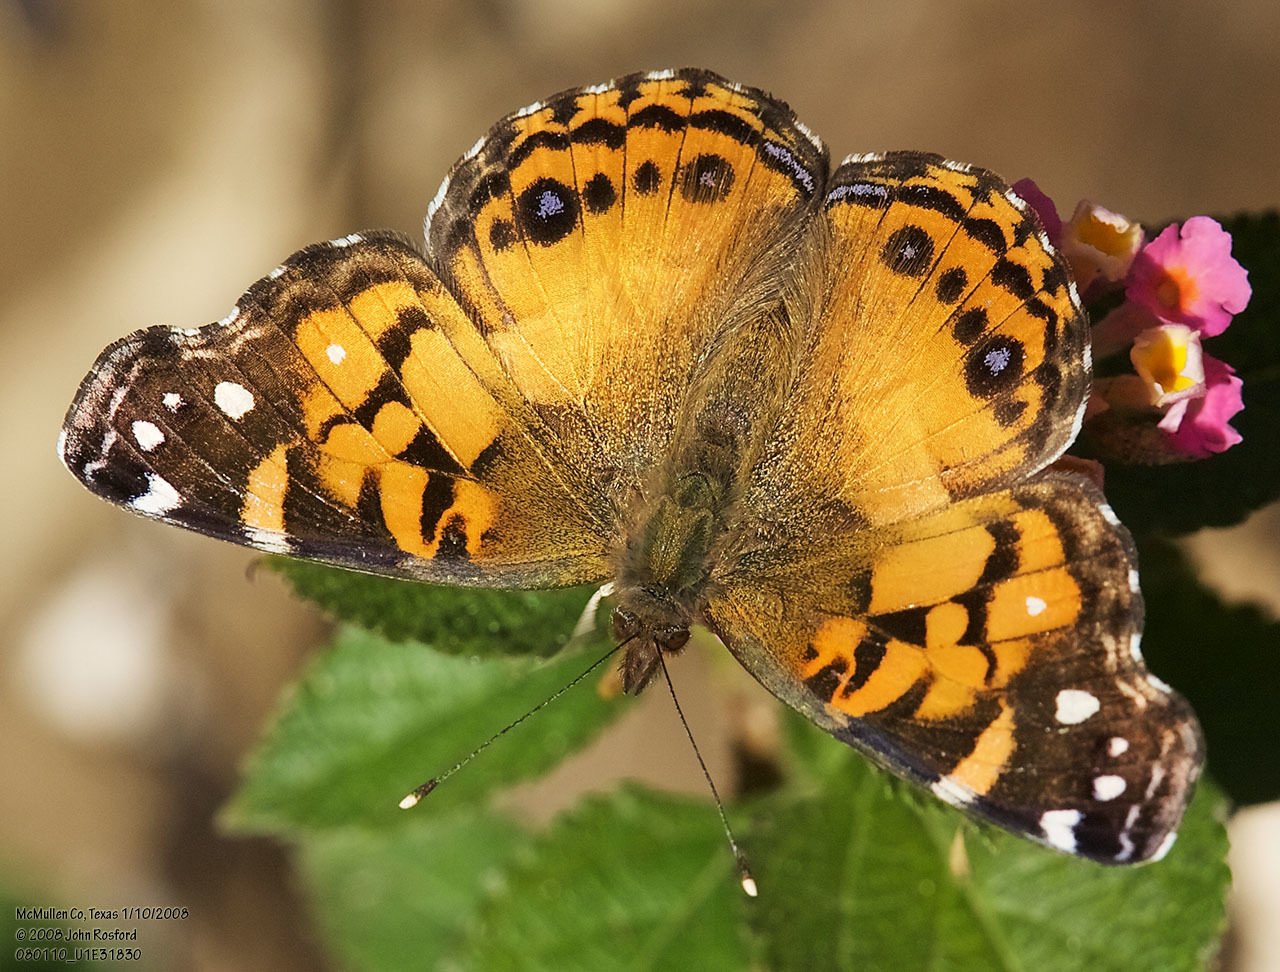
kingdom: Animalia
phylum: Arthropoda
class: Insecta
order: Lepidoptera
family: Nymphalidae
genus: Vanessa
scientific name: Vanessa virginiensis
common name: American lady
